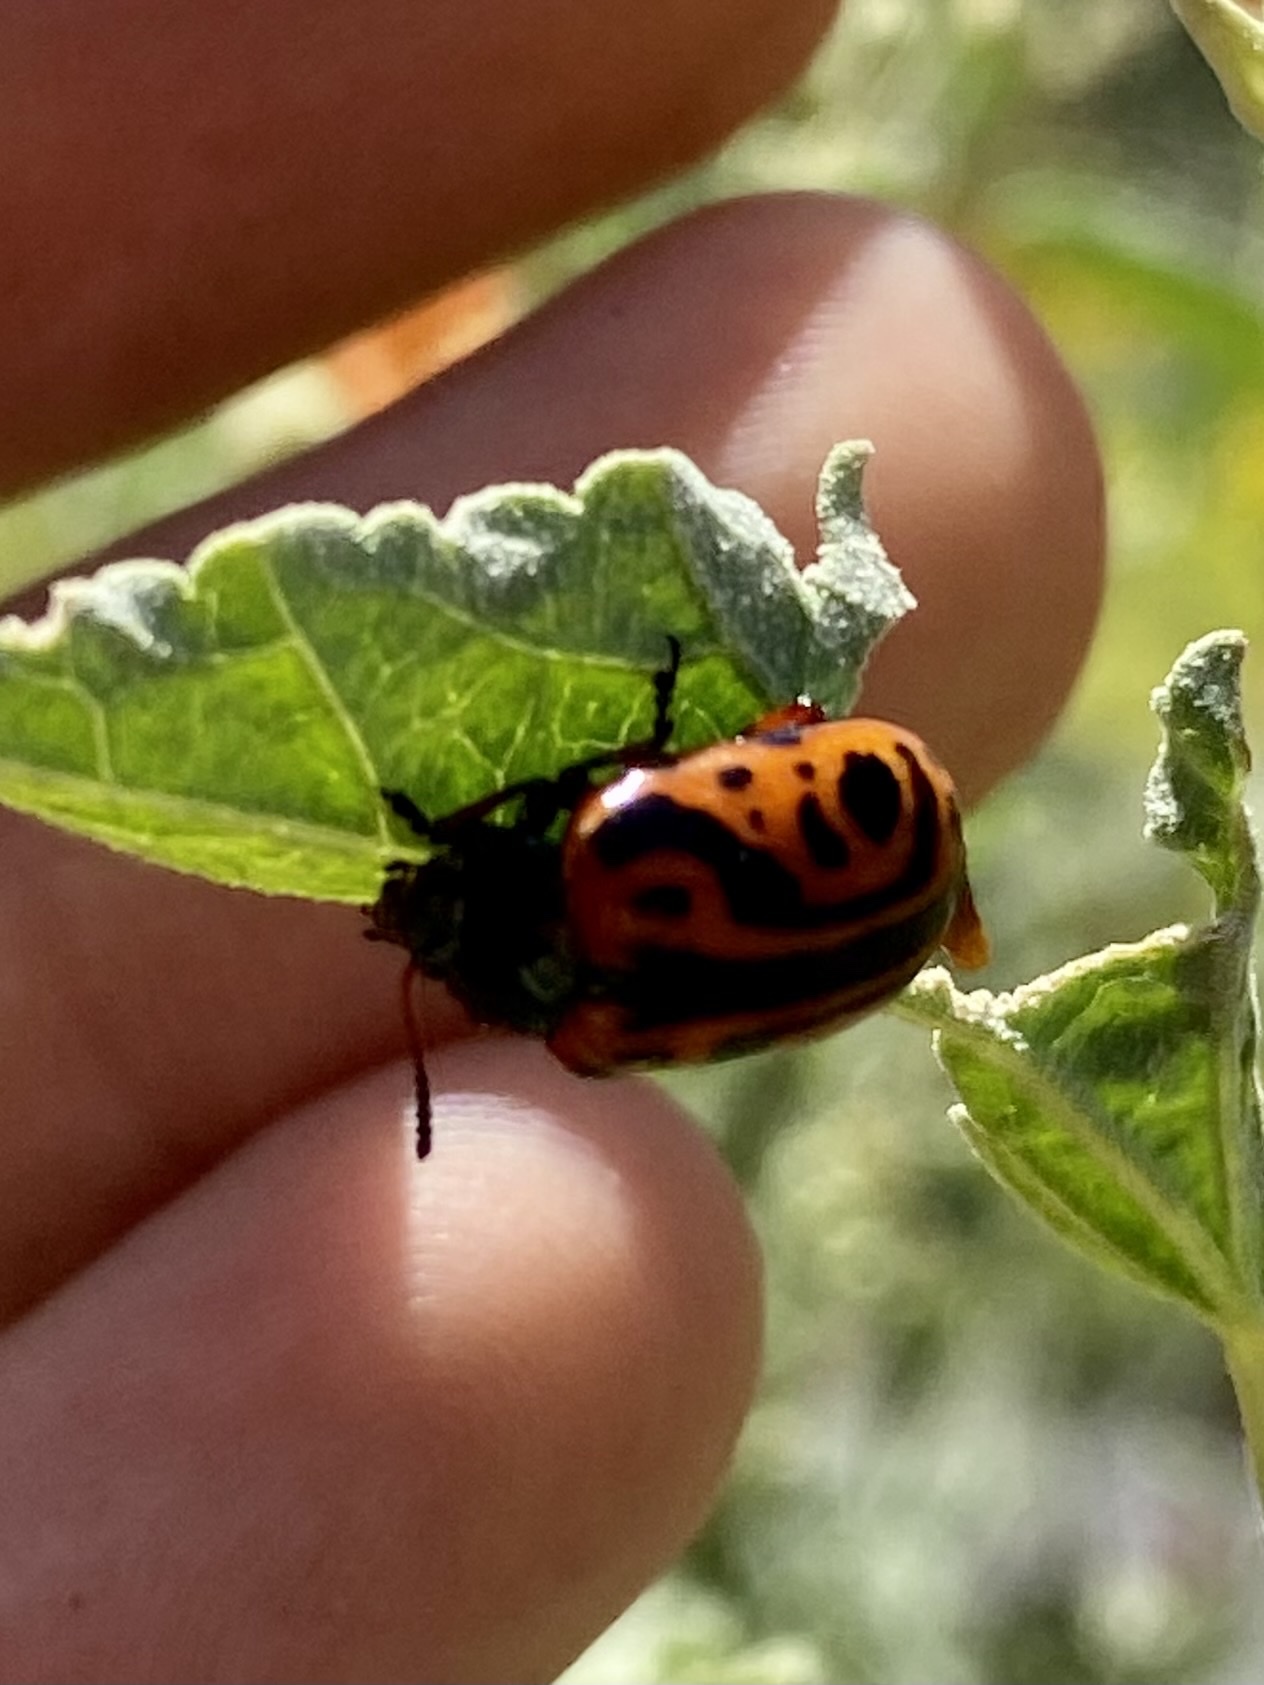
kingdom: Animalia
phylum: Arthropoda
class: Insecta
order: Coleoptera
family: Chrysomelidae
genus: Calligrapha
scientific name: Calligrapha serpentina
